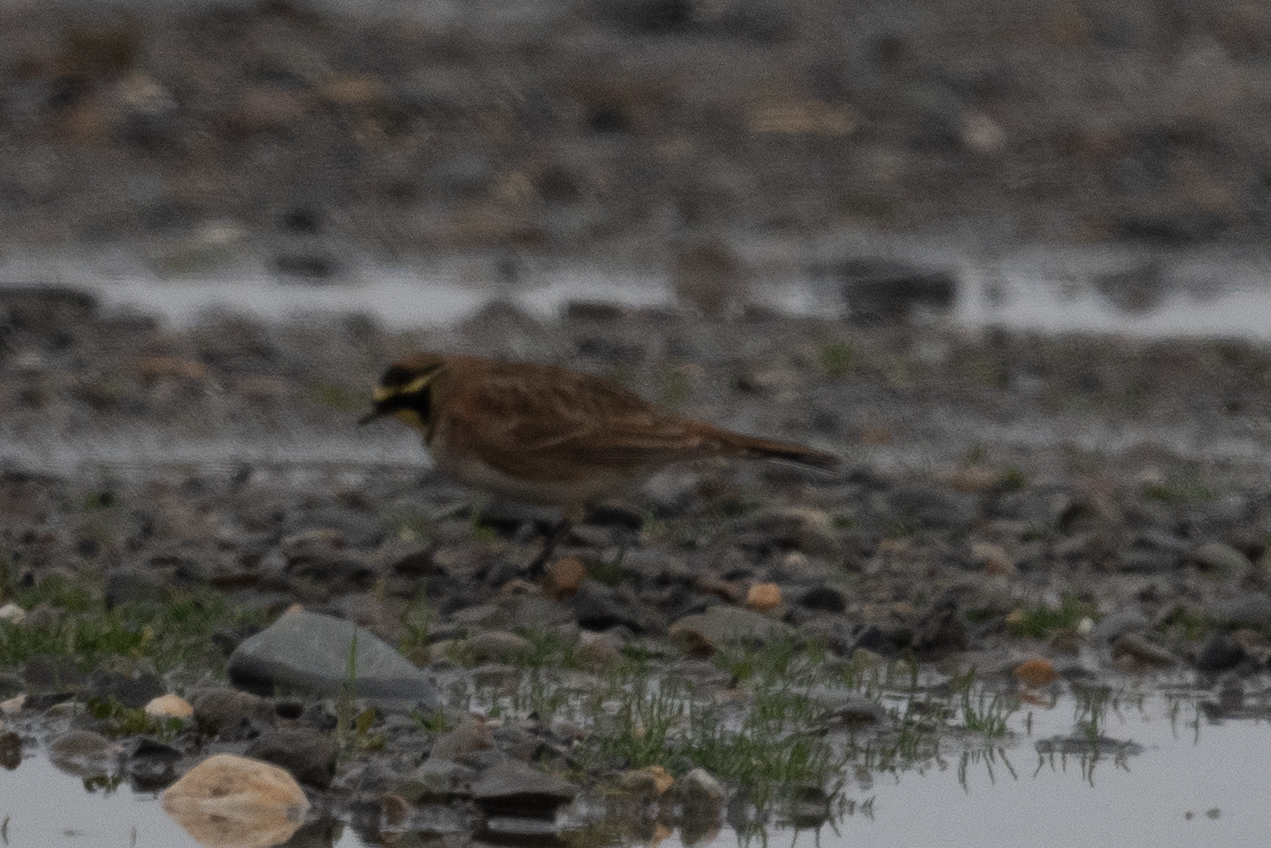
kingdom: Animalia
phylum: Chordata
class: Aves
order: Passeriformes
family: Alaudidae
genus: Eremophila
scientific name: Eremophila alpestris
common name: Horned lark
